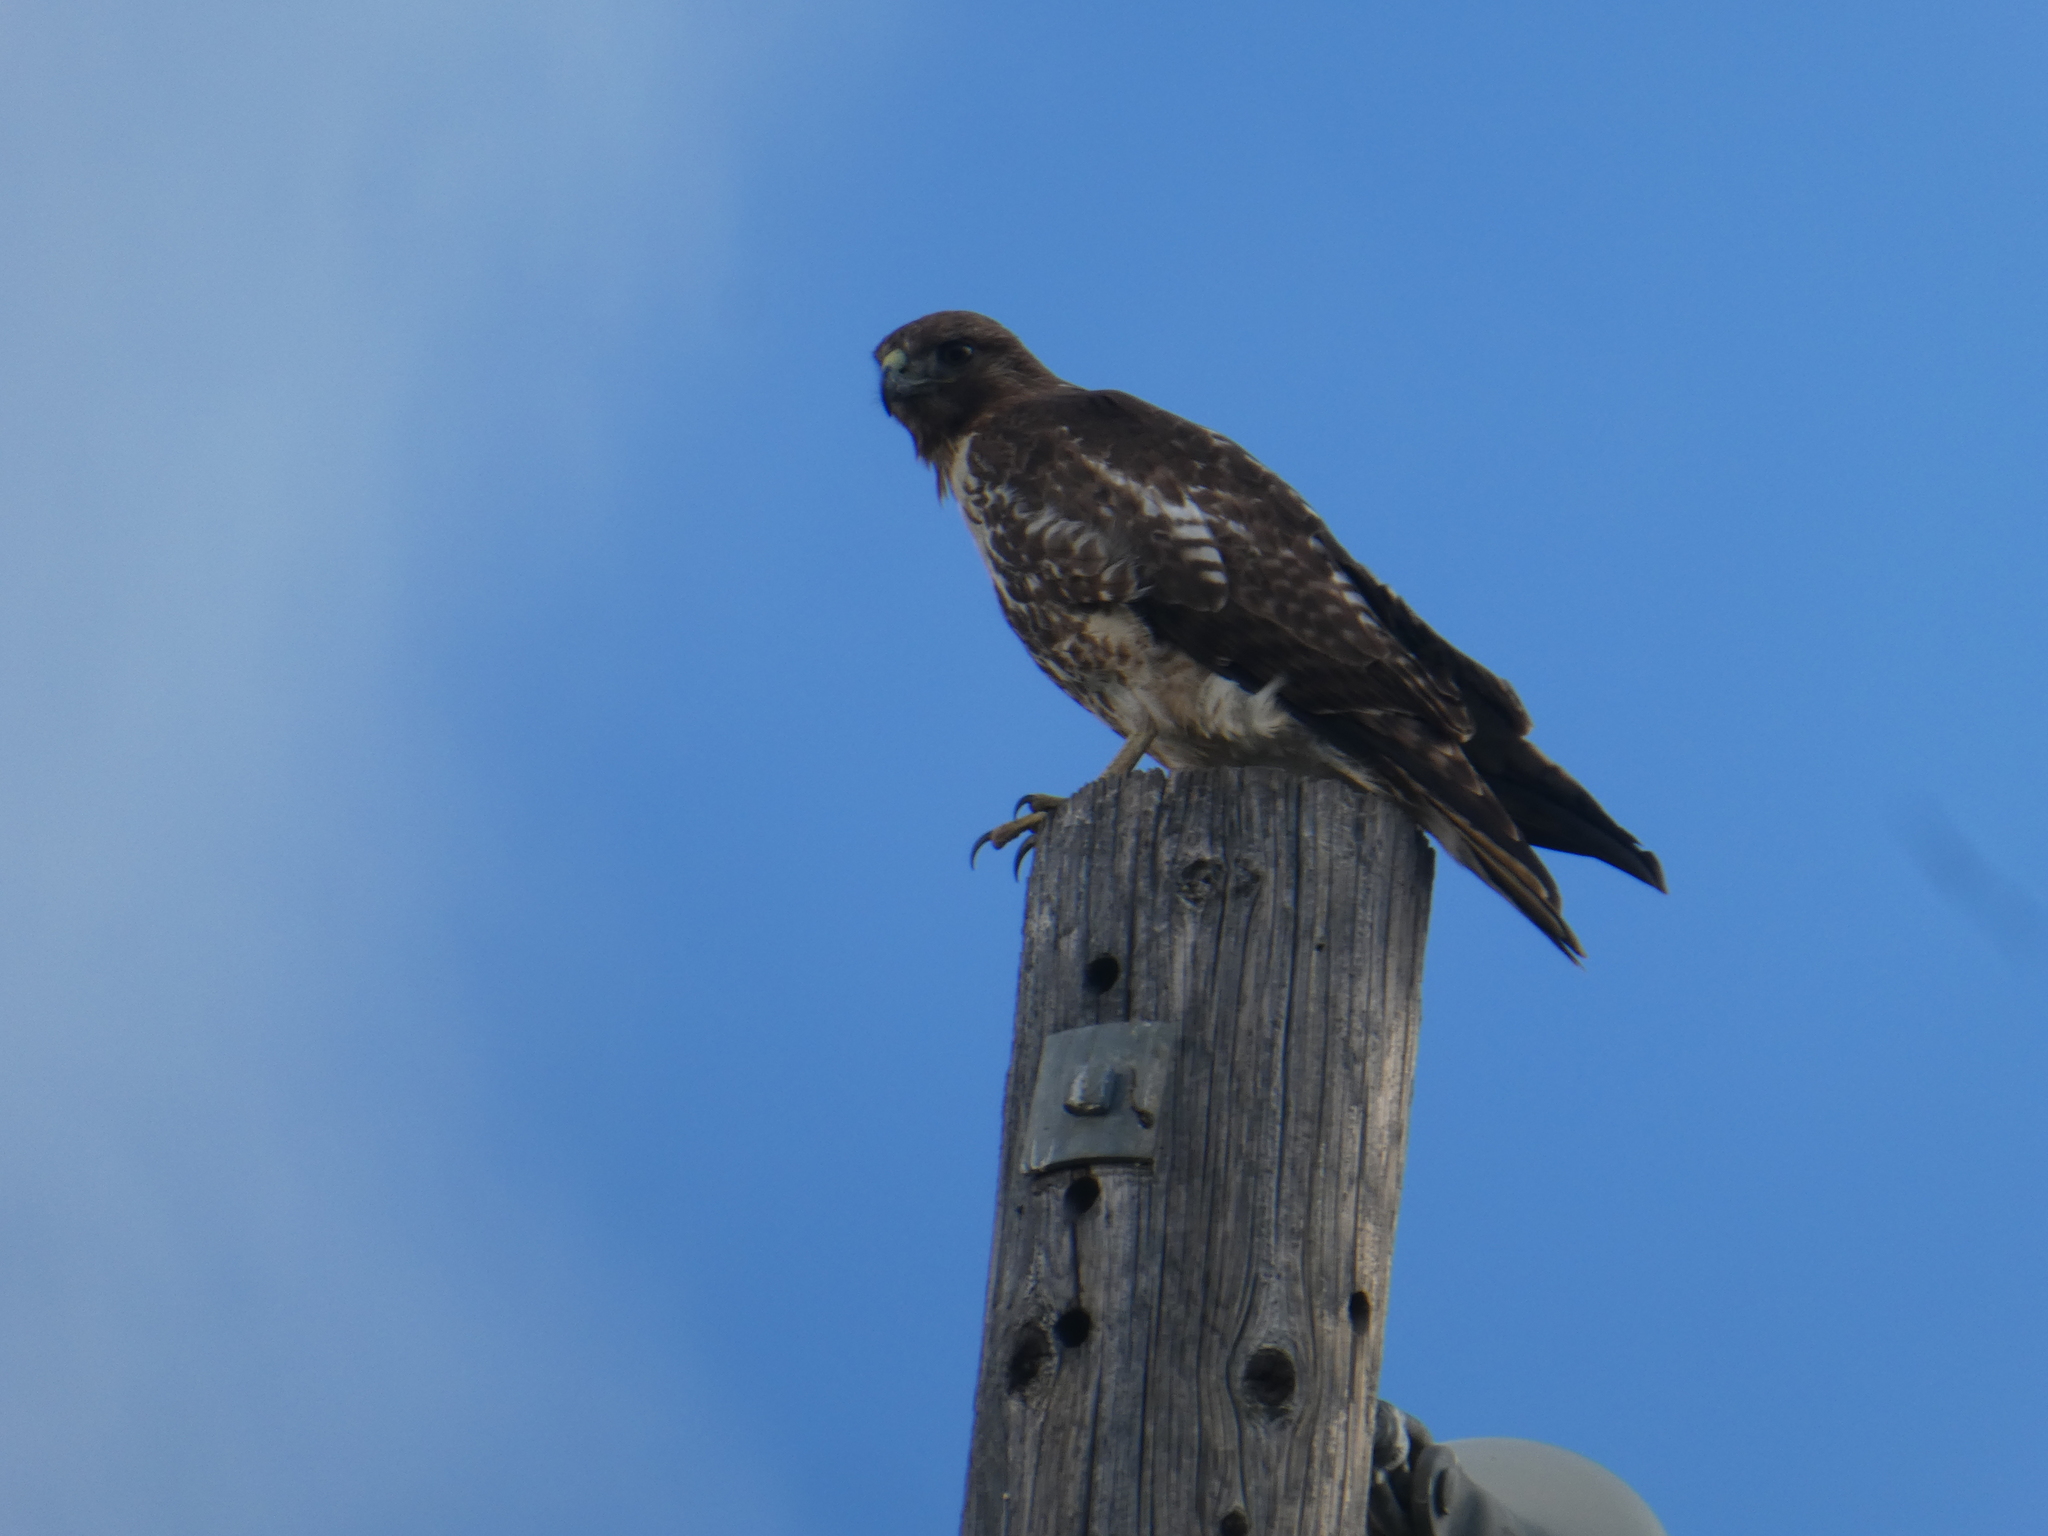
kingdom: Animalia
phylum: Chordata
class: Aves
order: Accipitriformes
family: Accipitridae
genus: Buteo
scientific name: Buteo jamaicensis
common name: Red-tailed hawk
